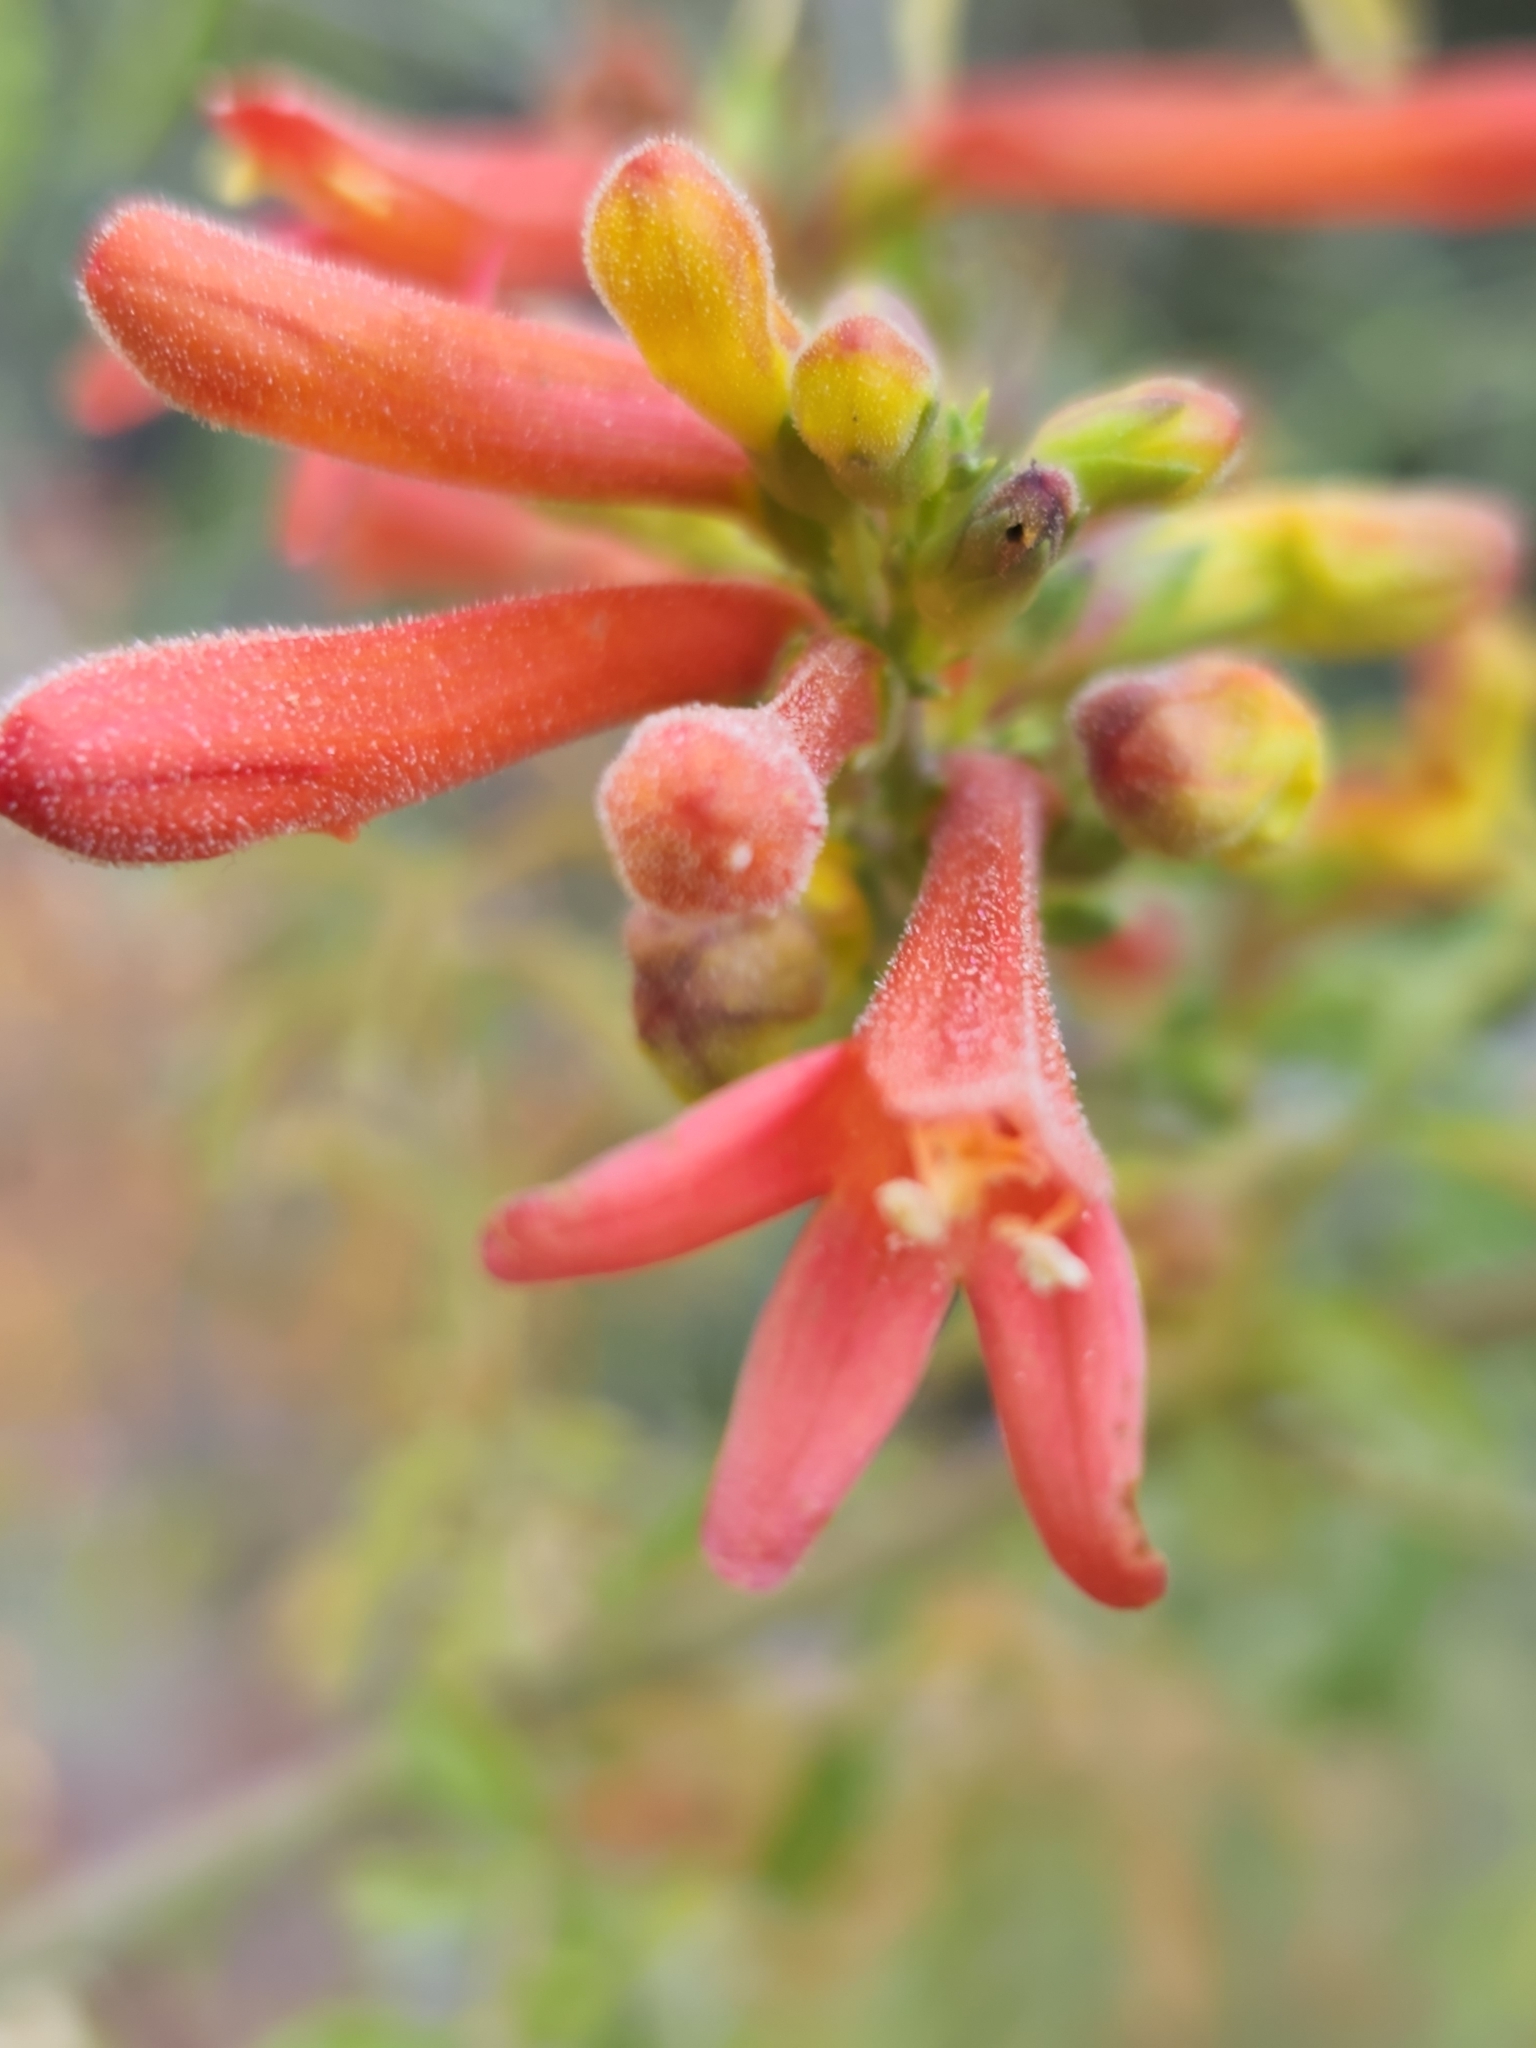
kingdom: Plantae
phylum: Tracheophyta
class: Magnoliopsida
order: Lamiales
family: Plantaginaceae
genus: Keckiella
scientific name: Keckiella ternata
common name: Scarlet keckiella
